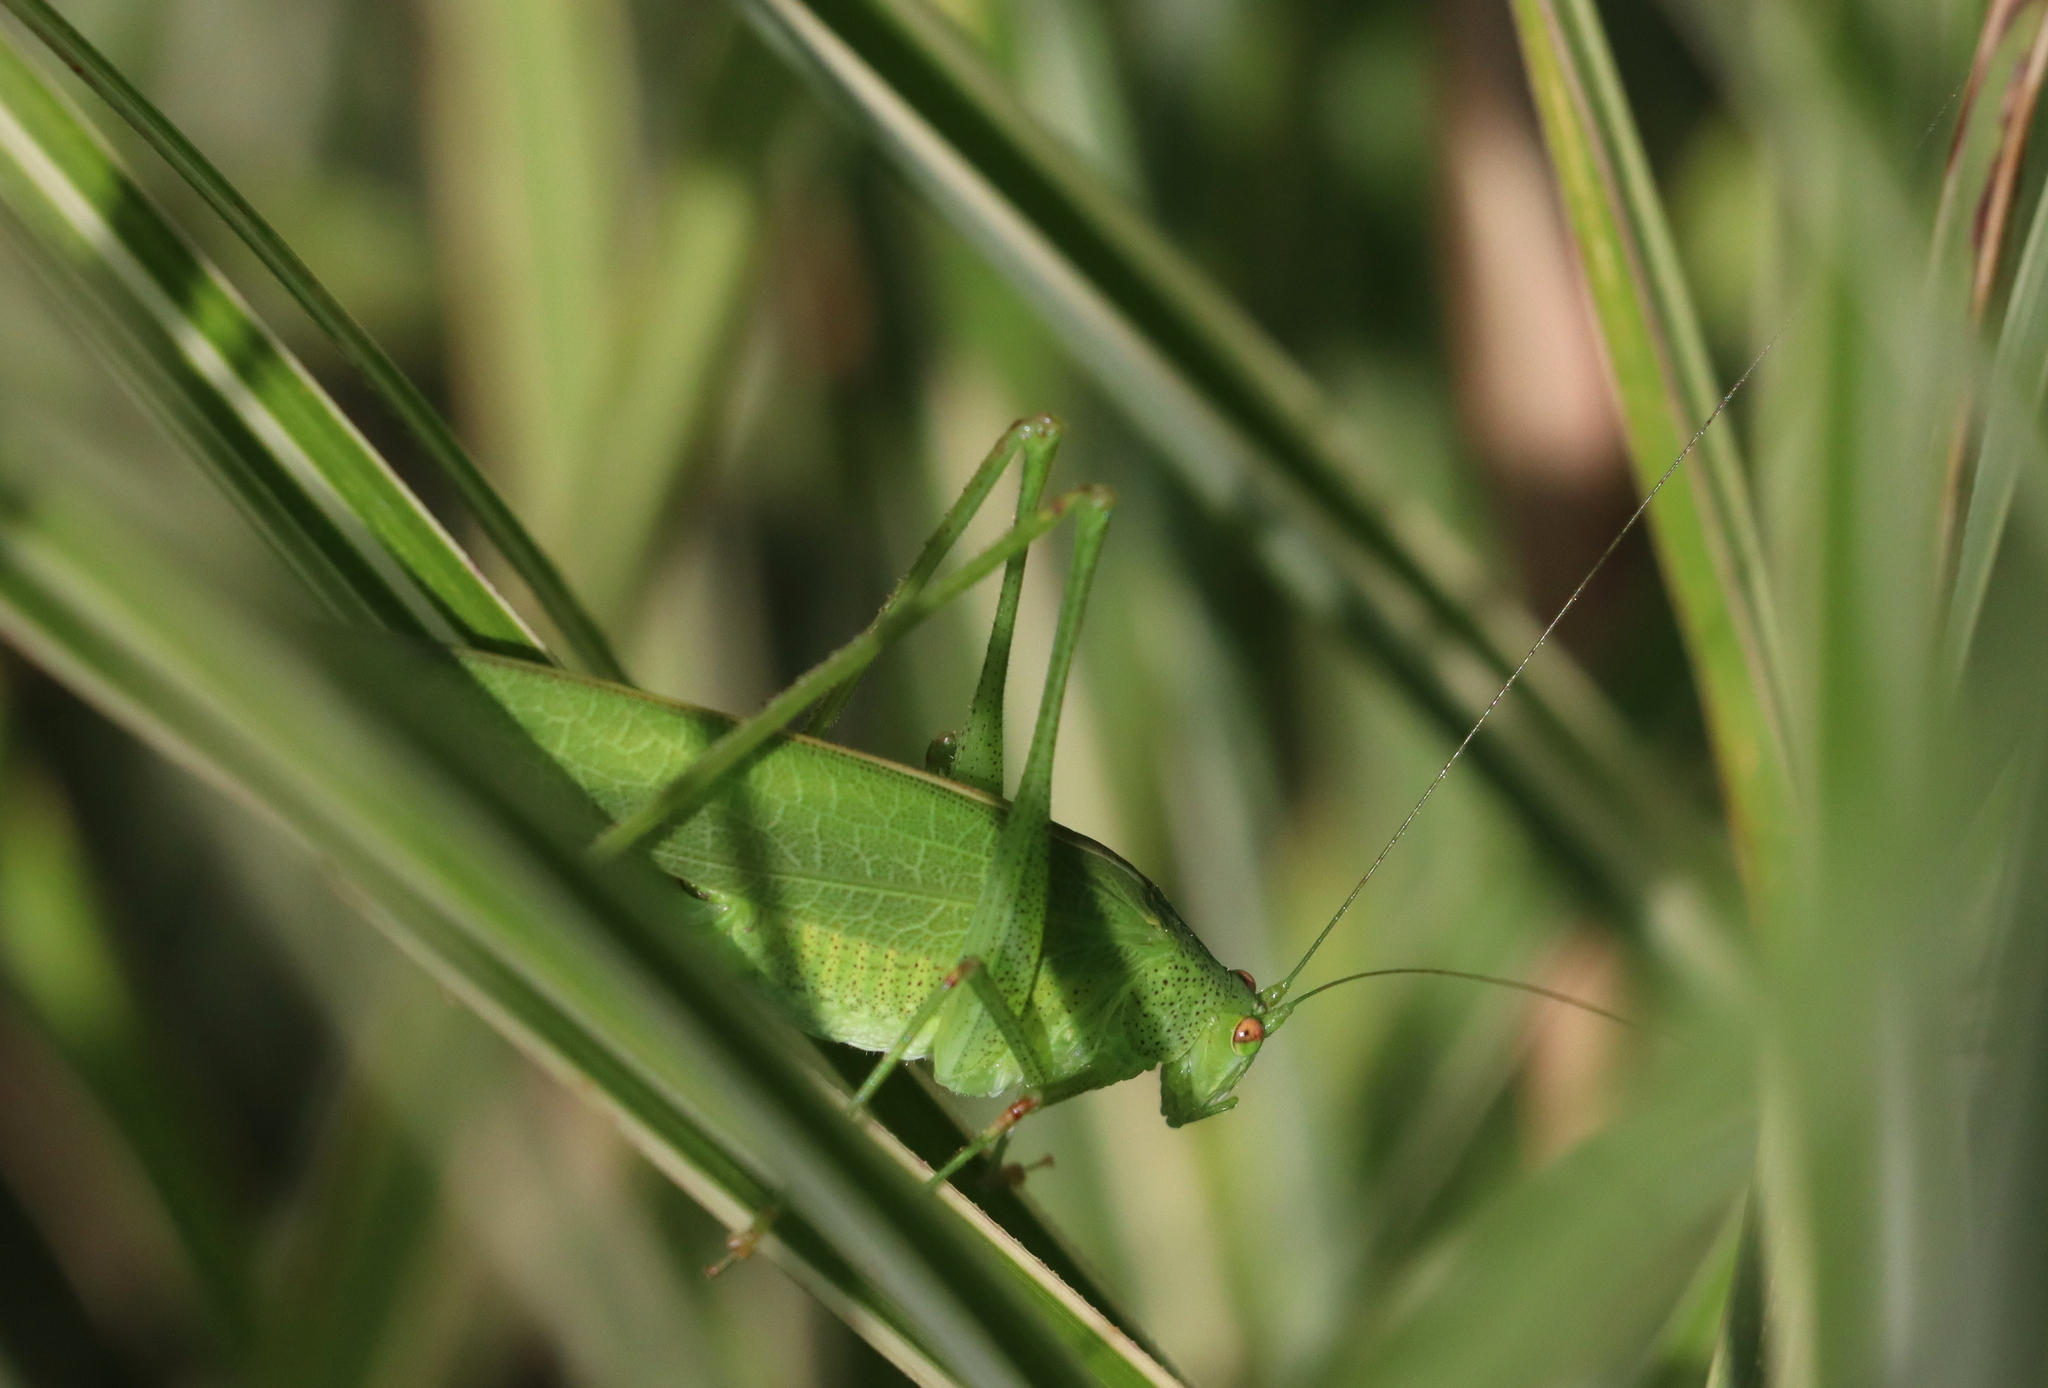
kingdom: Animalia
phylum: Arthropoda
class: Insecta
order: Orthoptera
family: Tettigoniidae
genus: Phaneroptera
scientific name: Phaneroptera nana
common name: Southern sickle bush-cricket
